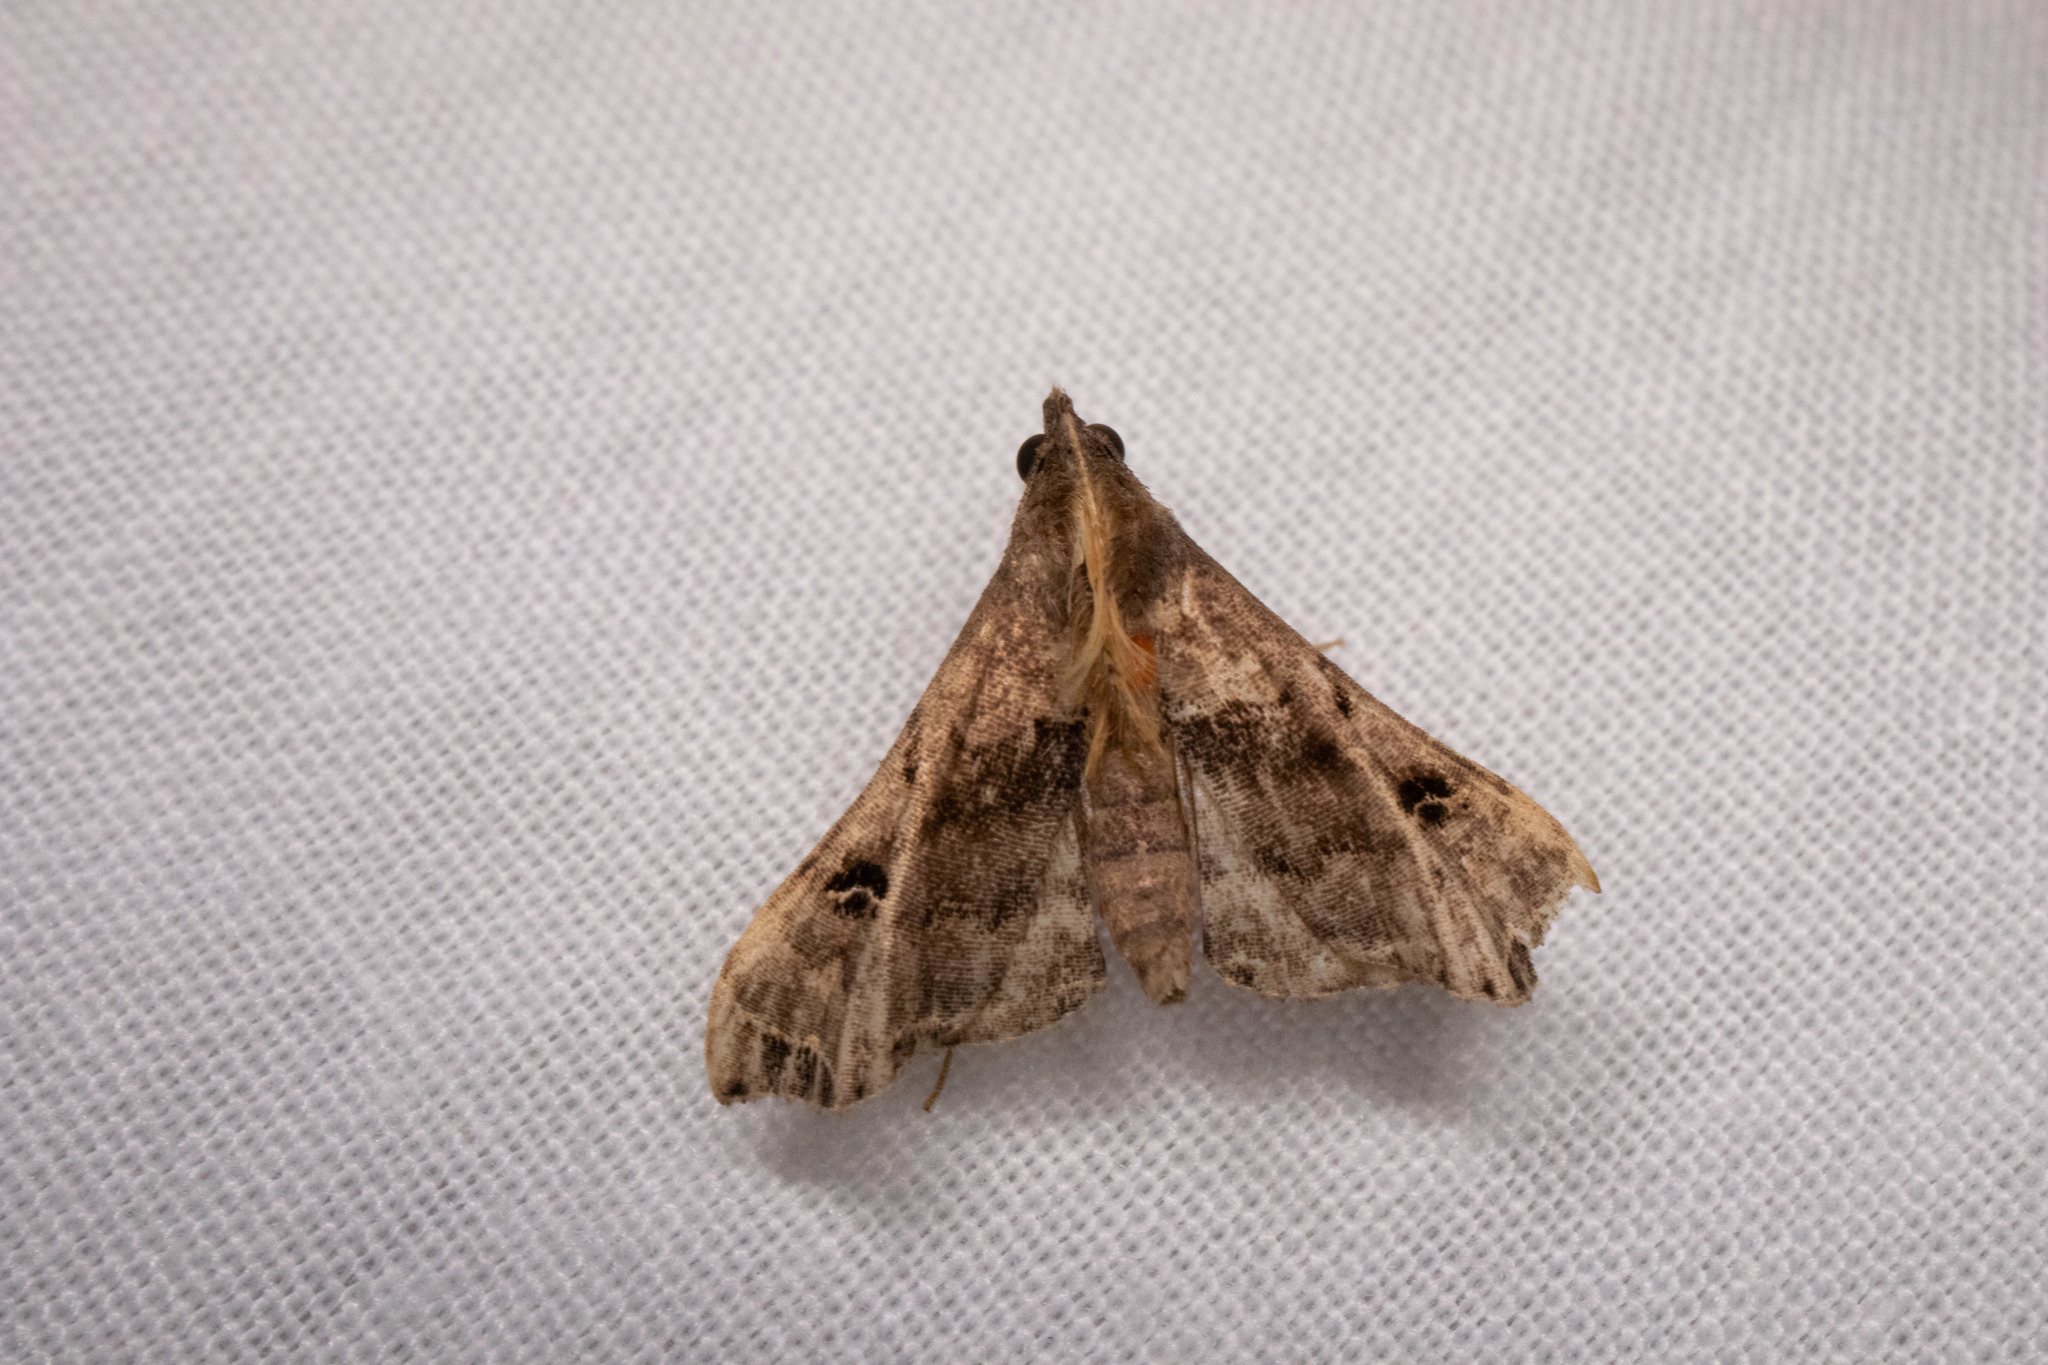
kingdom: Animalia
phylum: Arthropoda
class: Insecta
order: Lepidoptera
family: Erebidae
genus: Palthis
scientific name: Palthis asopialis
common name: Faint-spotted palthis moth
